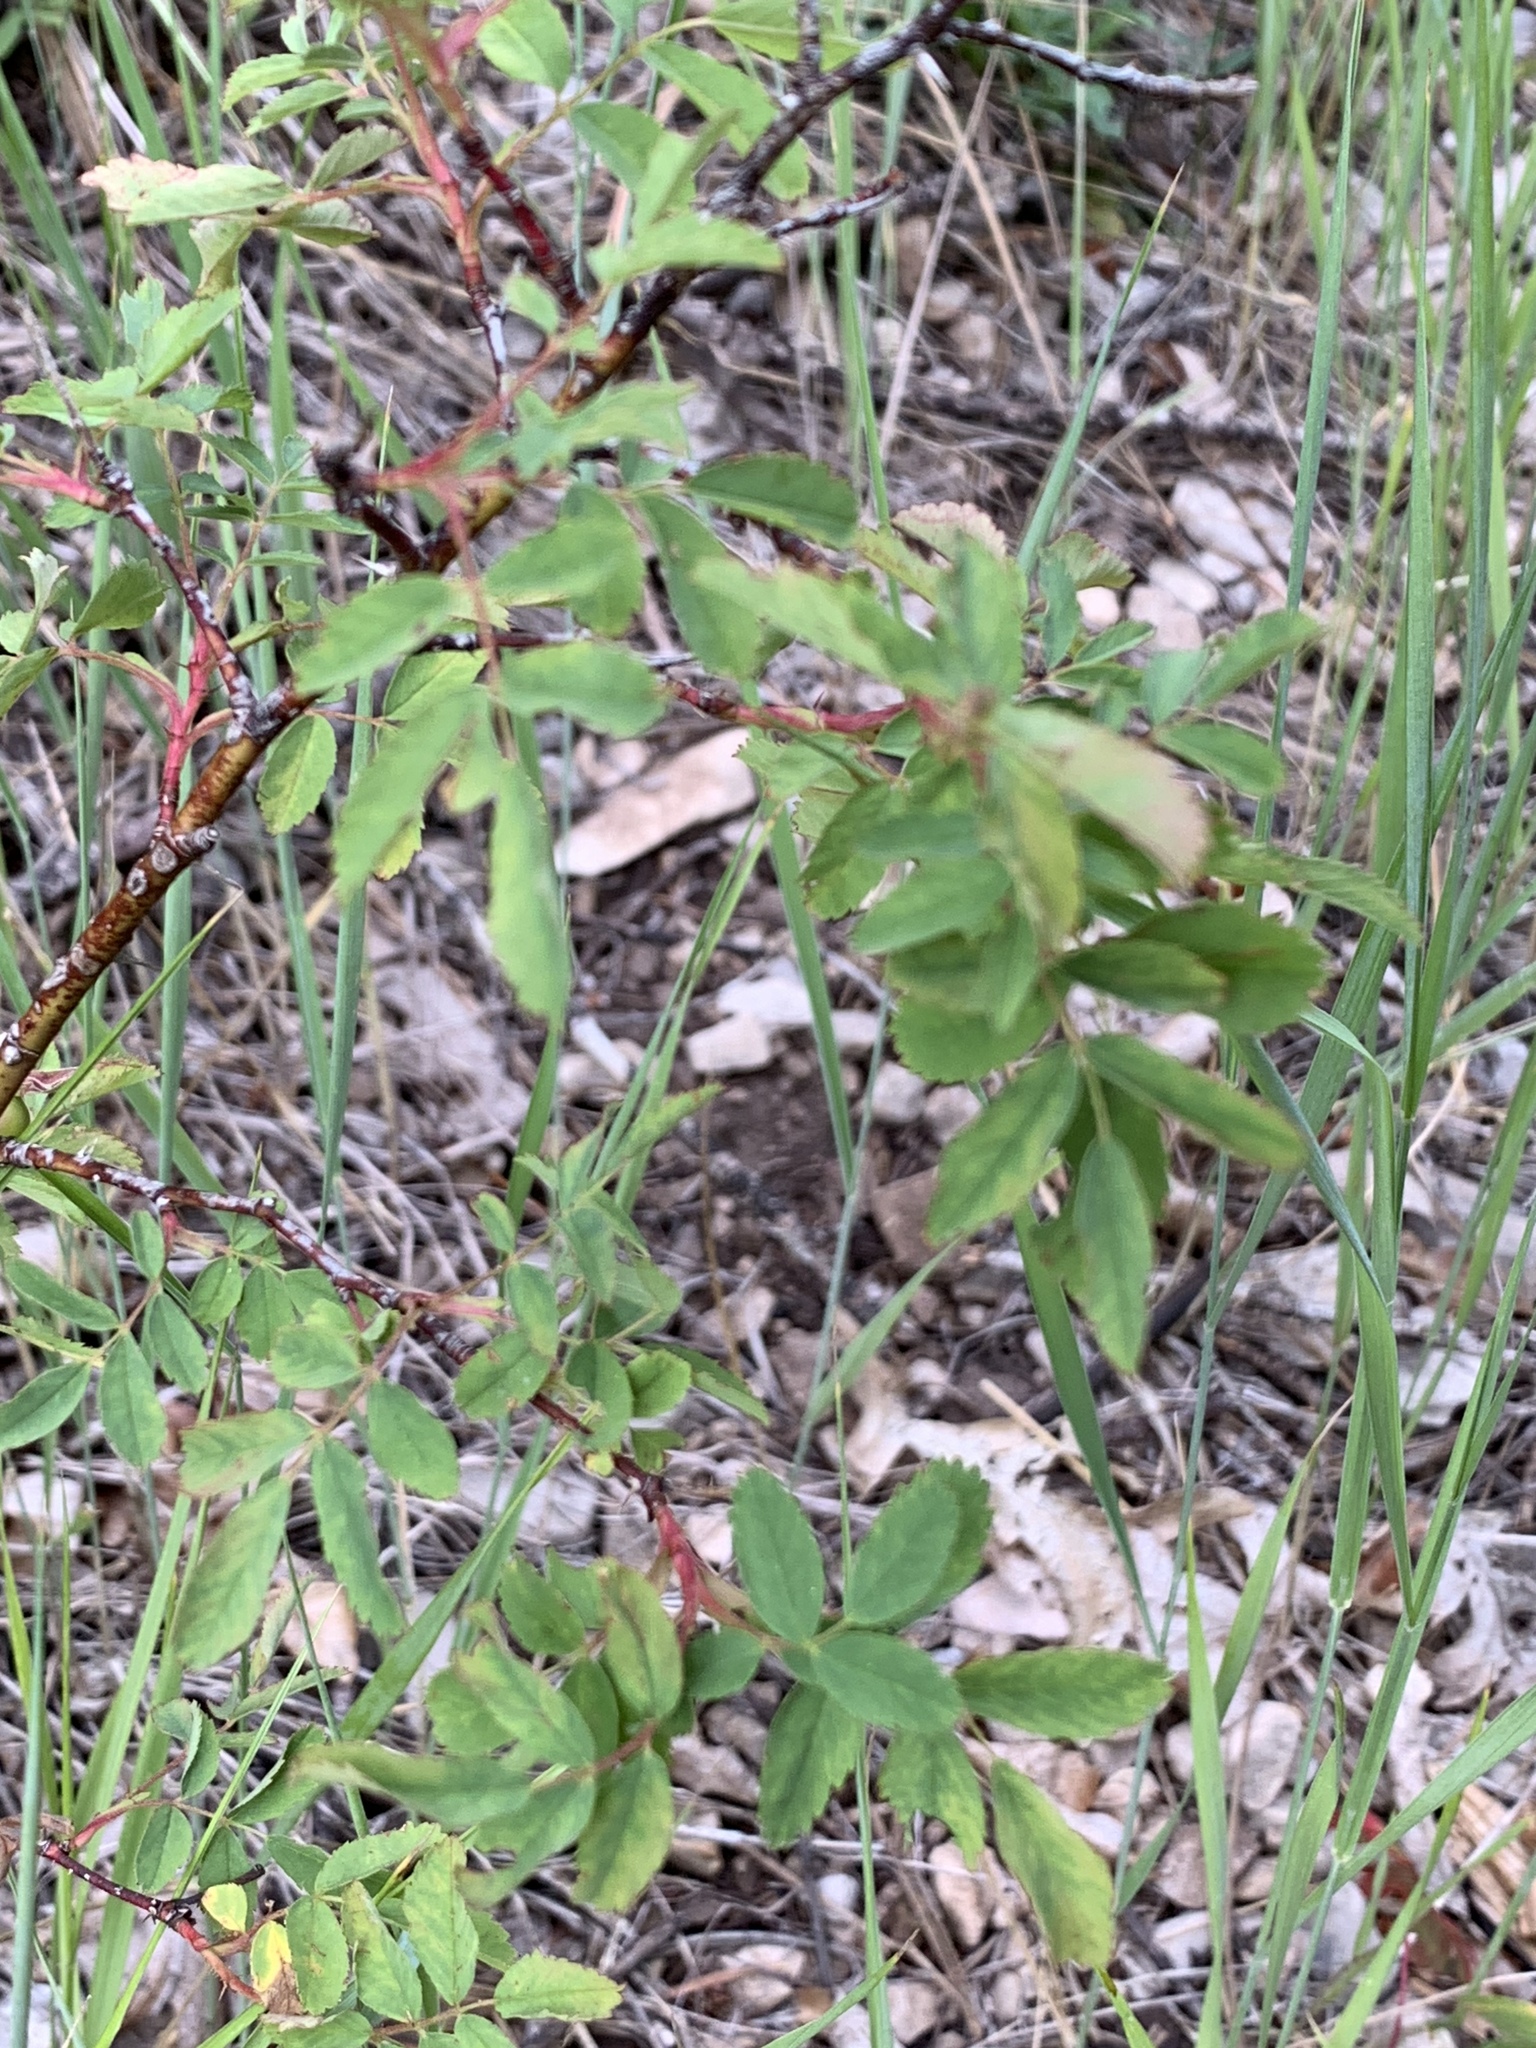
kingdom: Plantae
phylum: Tracheophyta
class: Magnoliopsida
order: Rosales
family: Rosaceae
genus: Rosa
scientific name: Rosa woodsii
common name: Woods's rose
